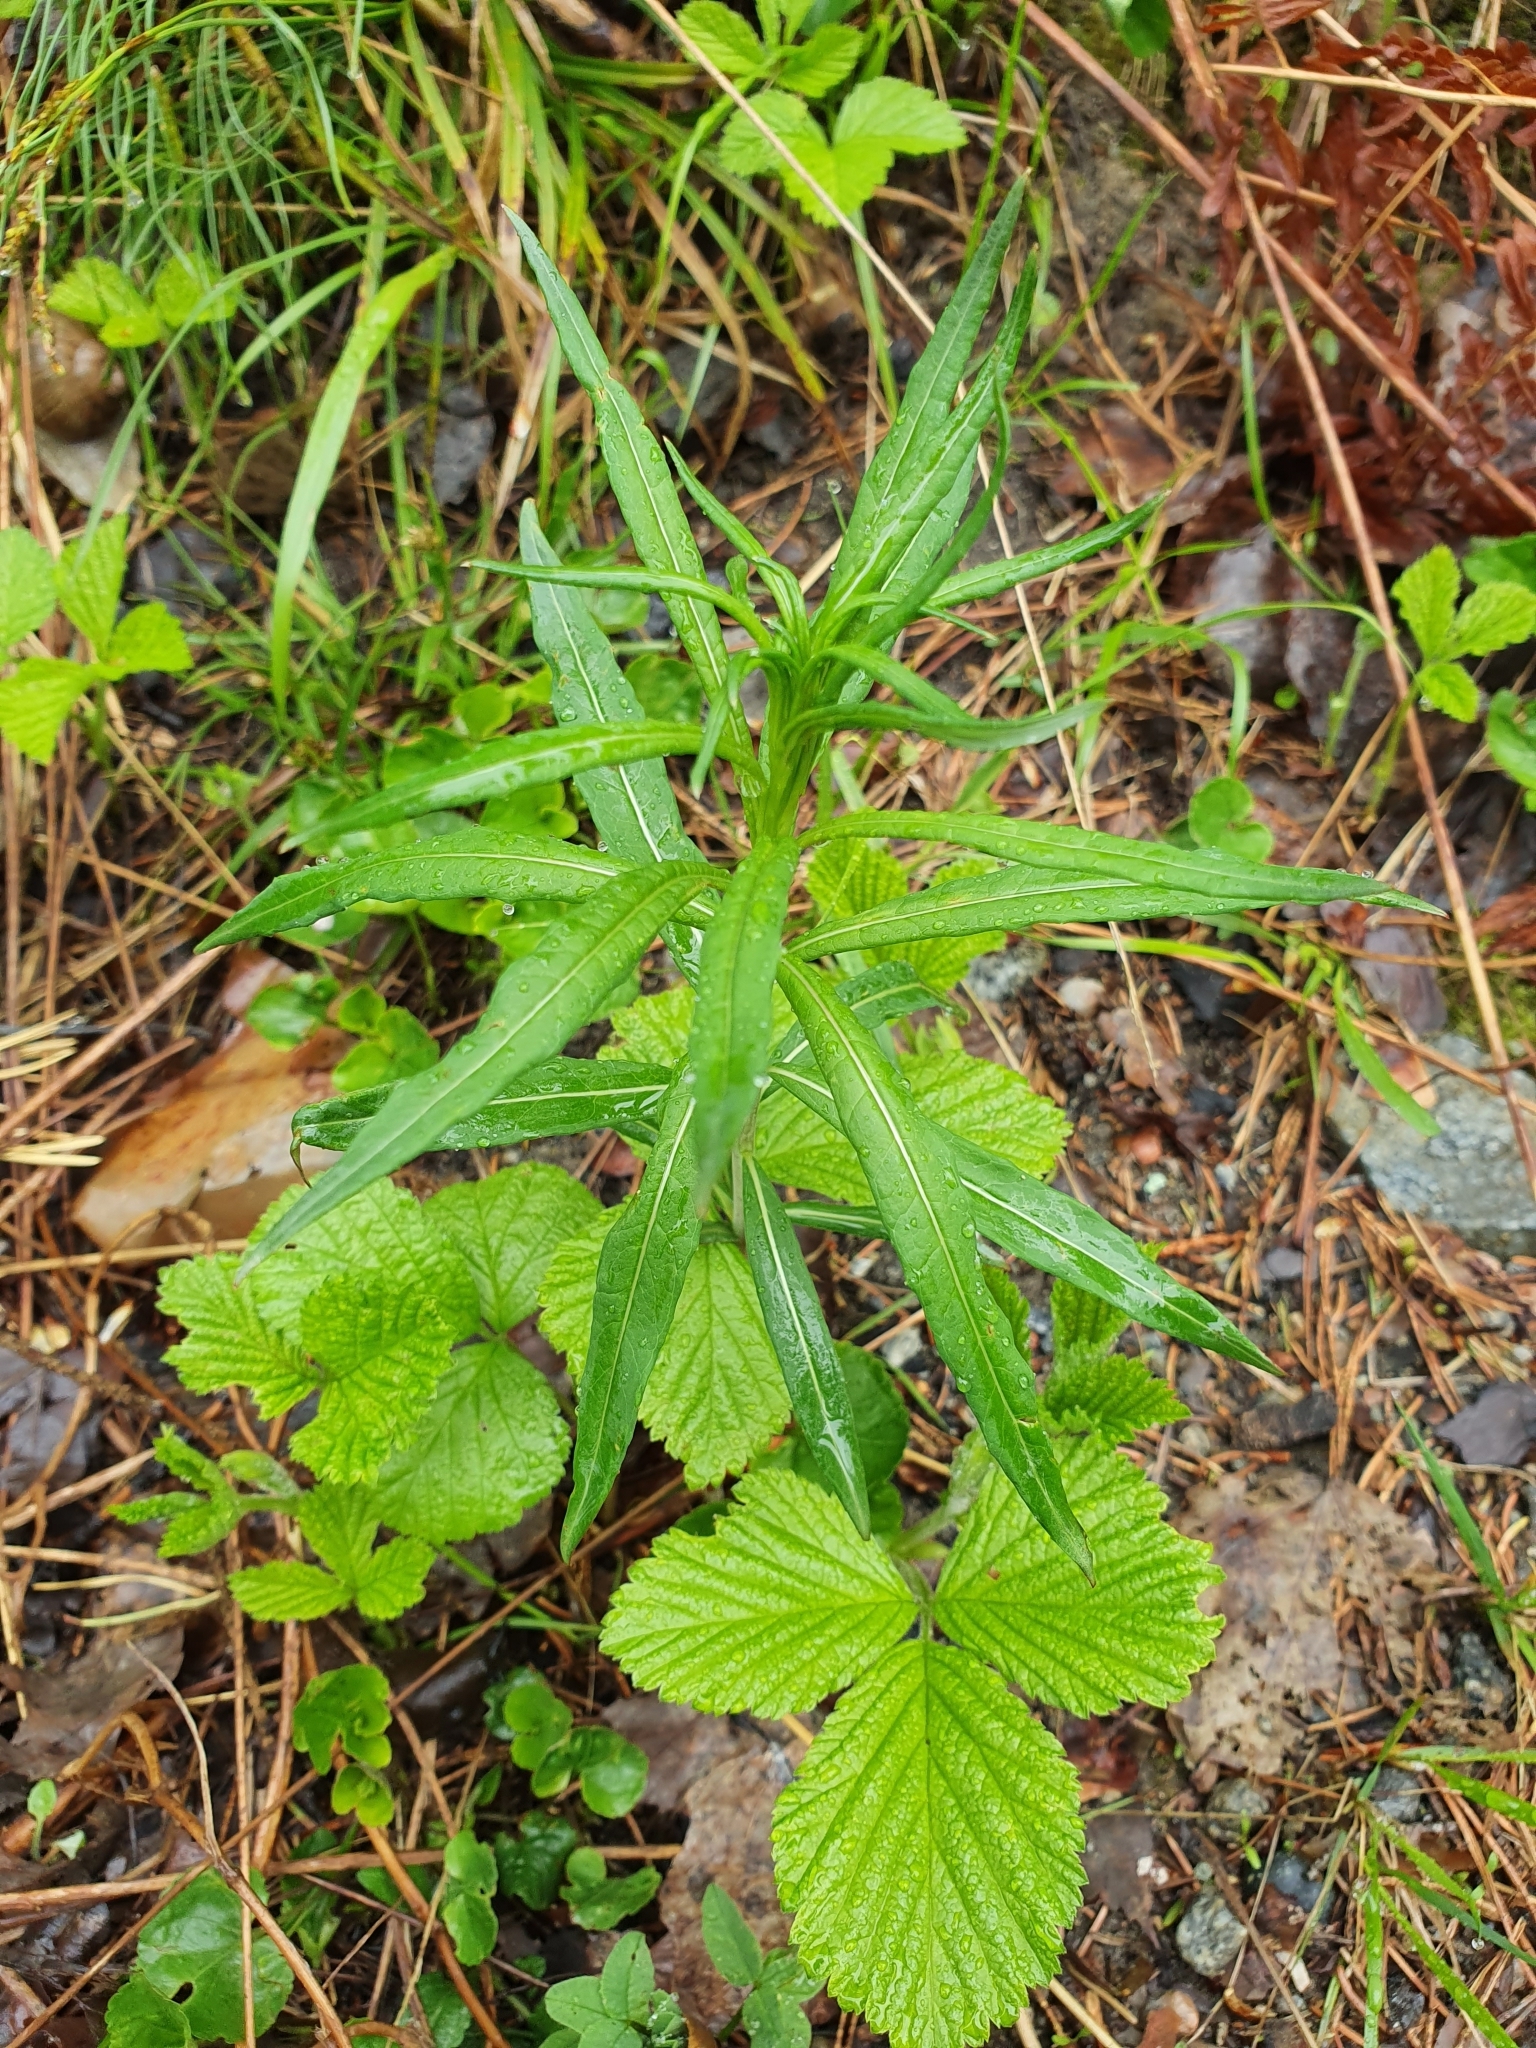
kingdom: Plantae
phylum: Tracheophyta
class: Magnoliopsida
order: Myrtales
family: Onagraceae
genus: Chamaenerion
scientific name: Chamaenerion angustifolium
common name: Fireweed
